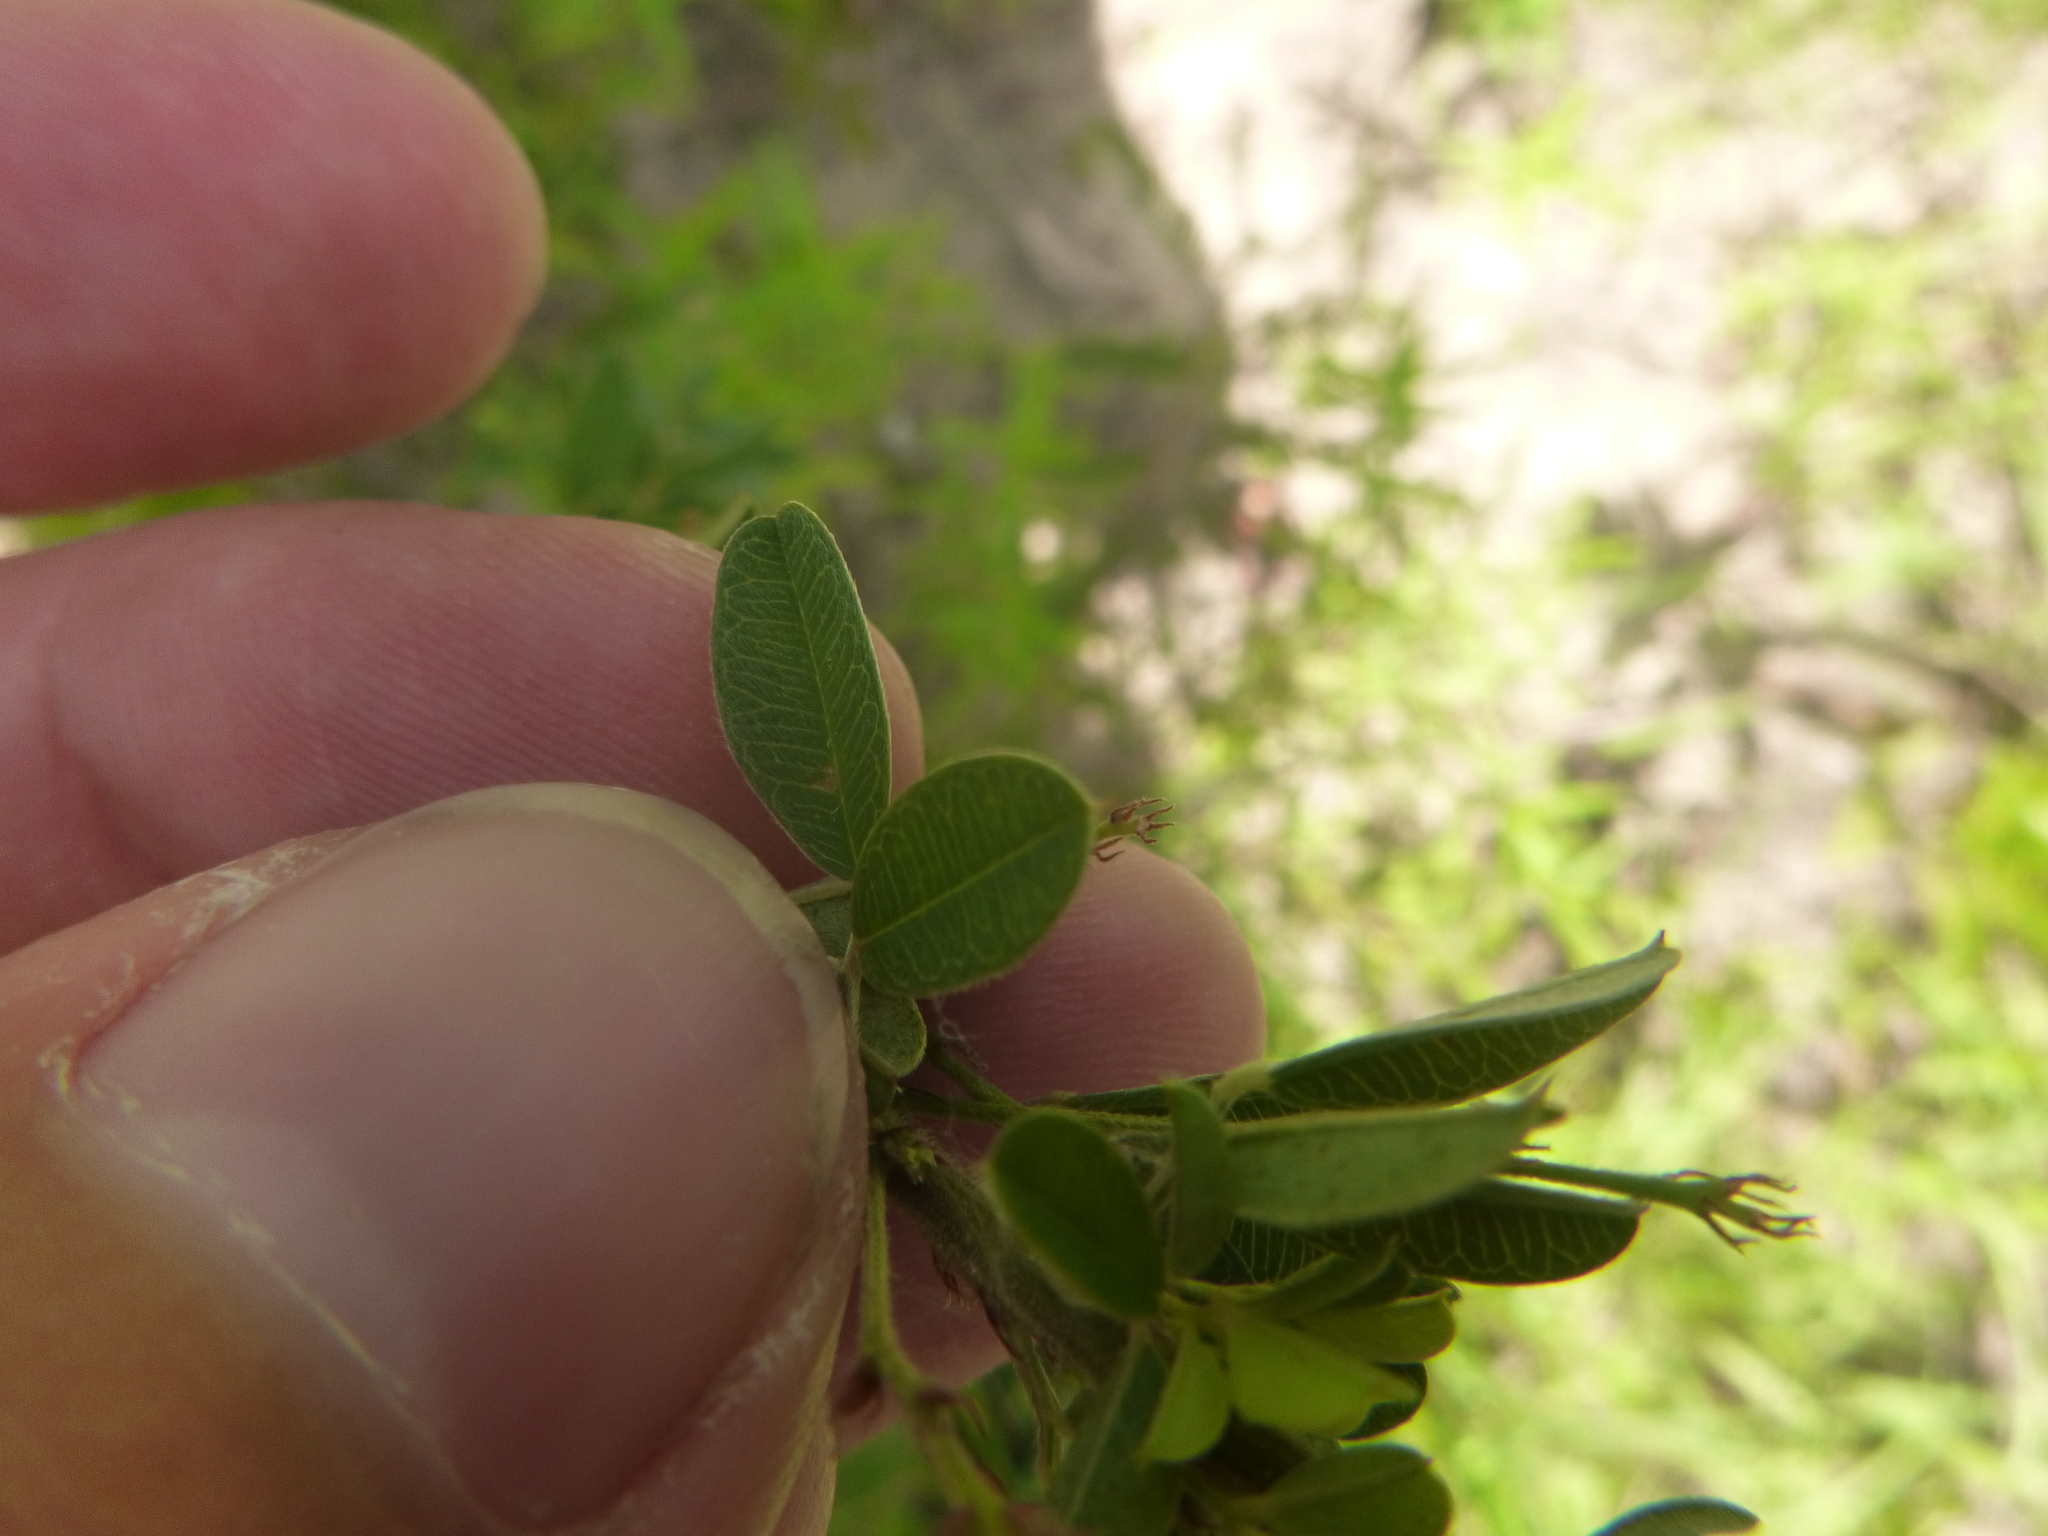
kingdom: Plantae
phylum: Tracheophyta
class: Magnoliopsida
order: Fabales
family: Fabaceae
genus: Lespedeza
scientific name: Lespedeza stuevei
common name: Tall bush-clover
